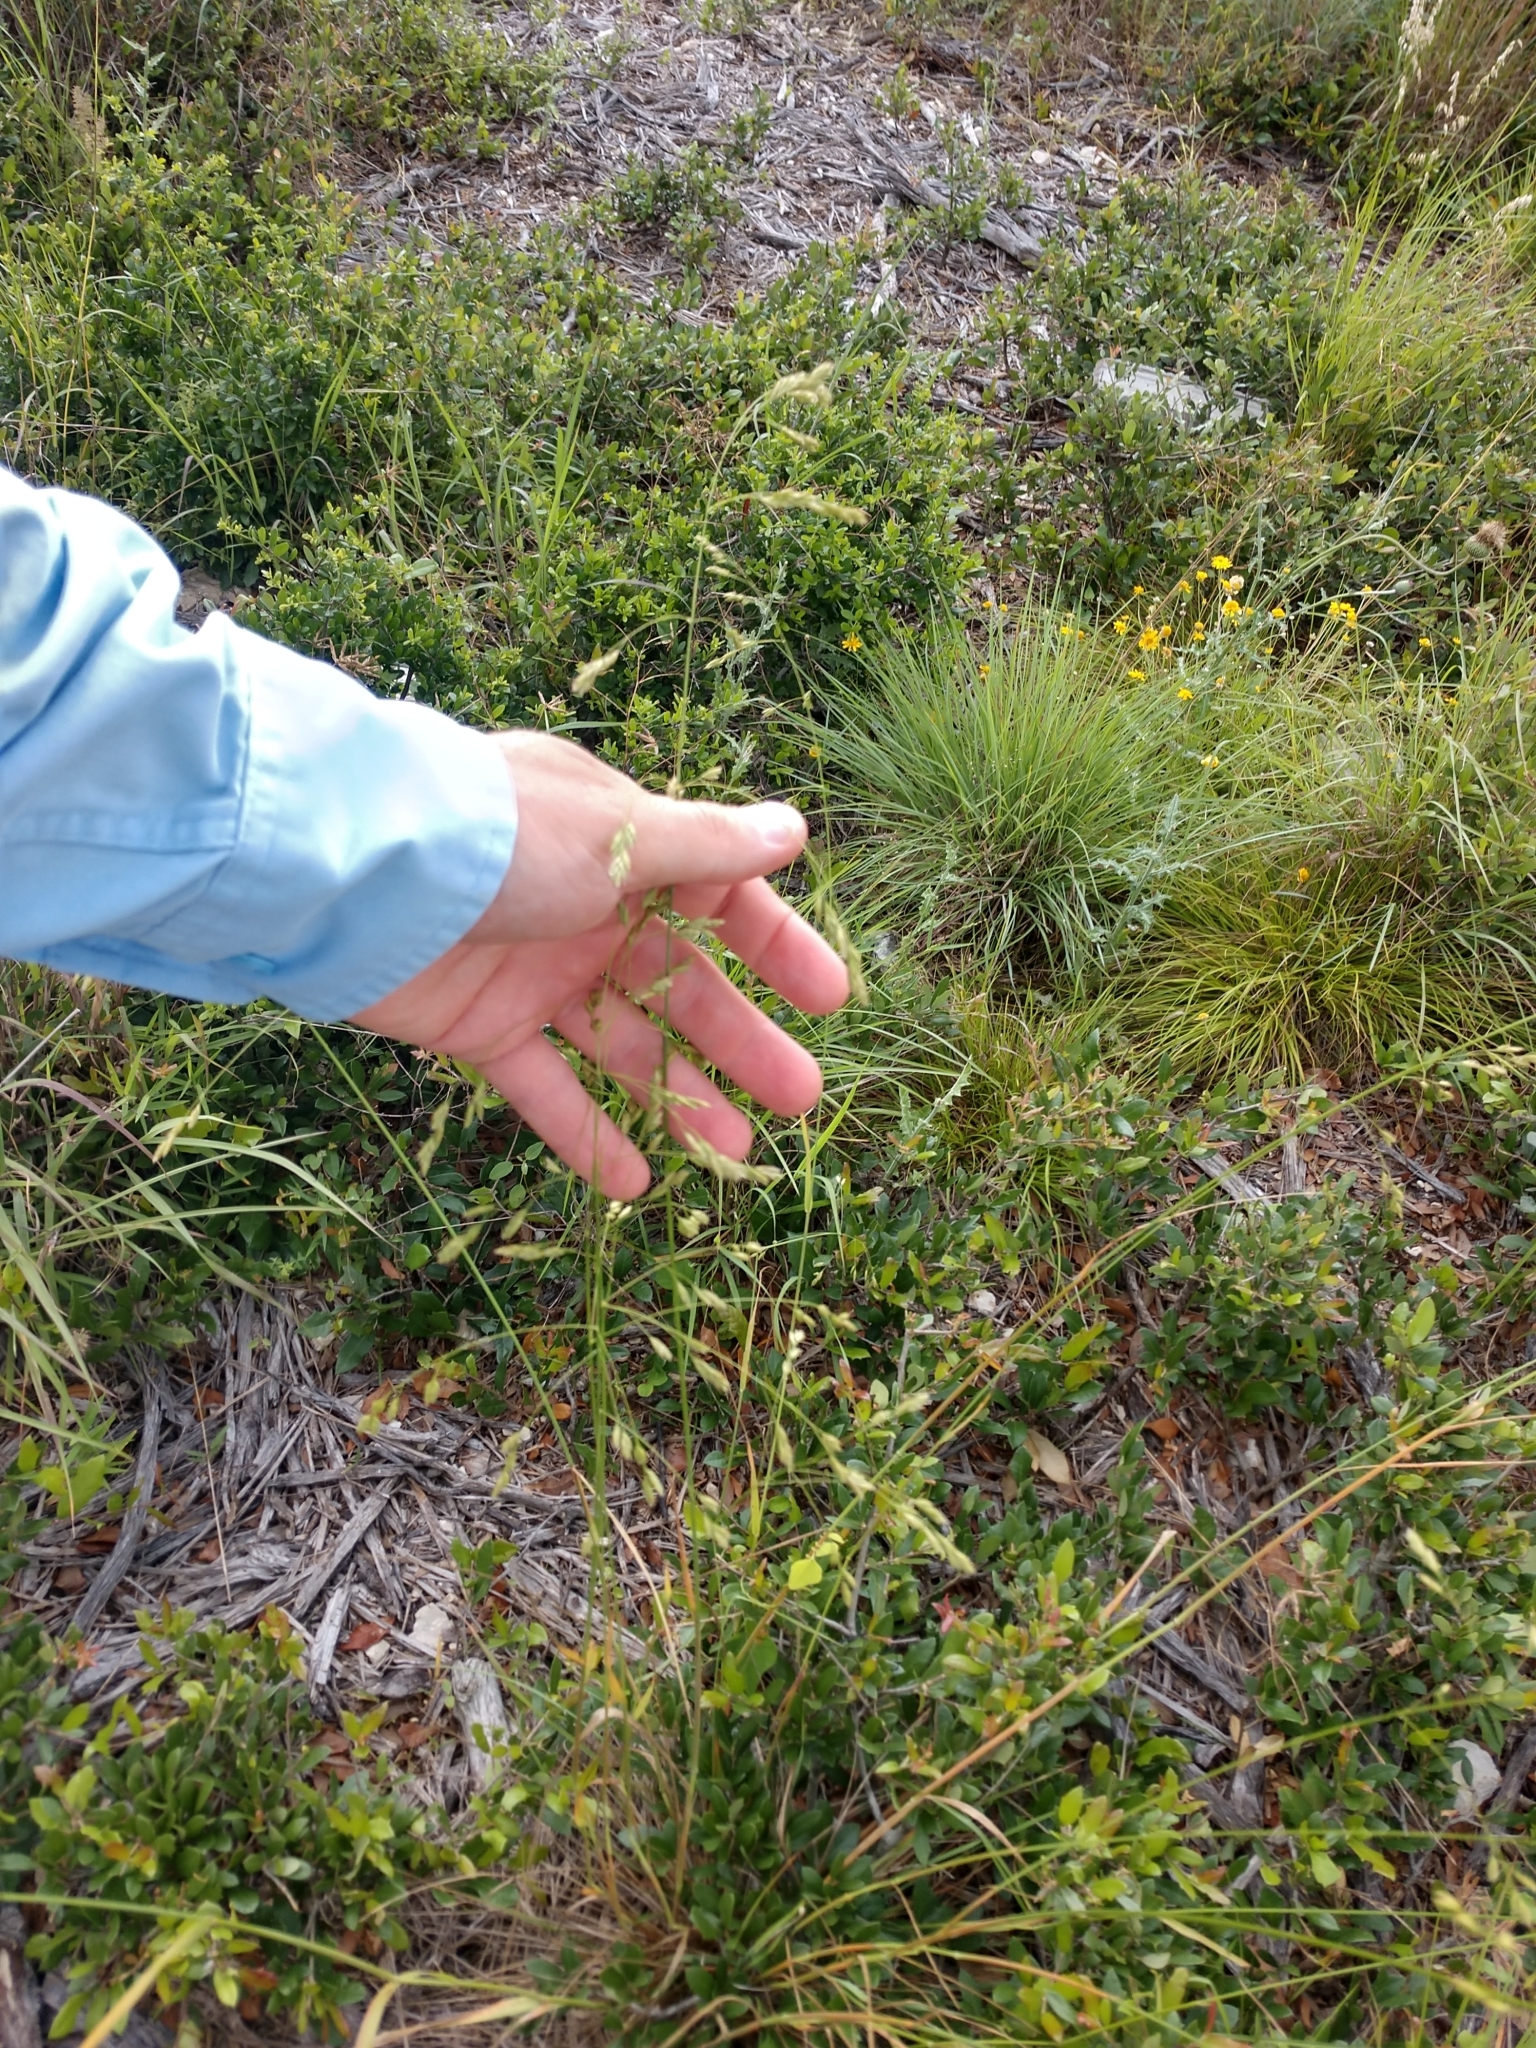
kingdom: Plantae
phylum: Tracheophyta
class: Liliopsida
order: Poales
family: Poaceae
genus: Festuca
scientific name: Festuca versuta
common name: Texas fescue
